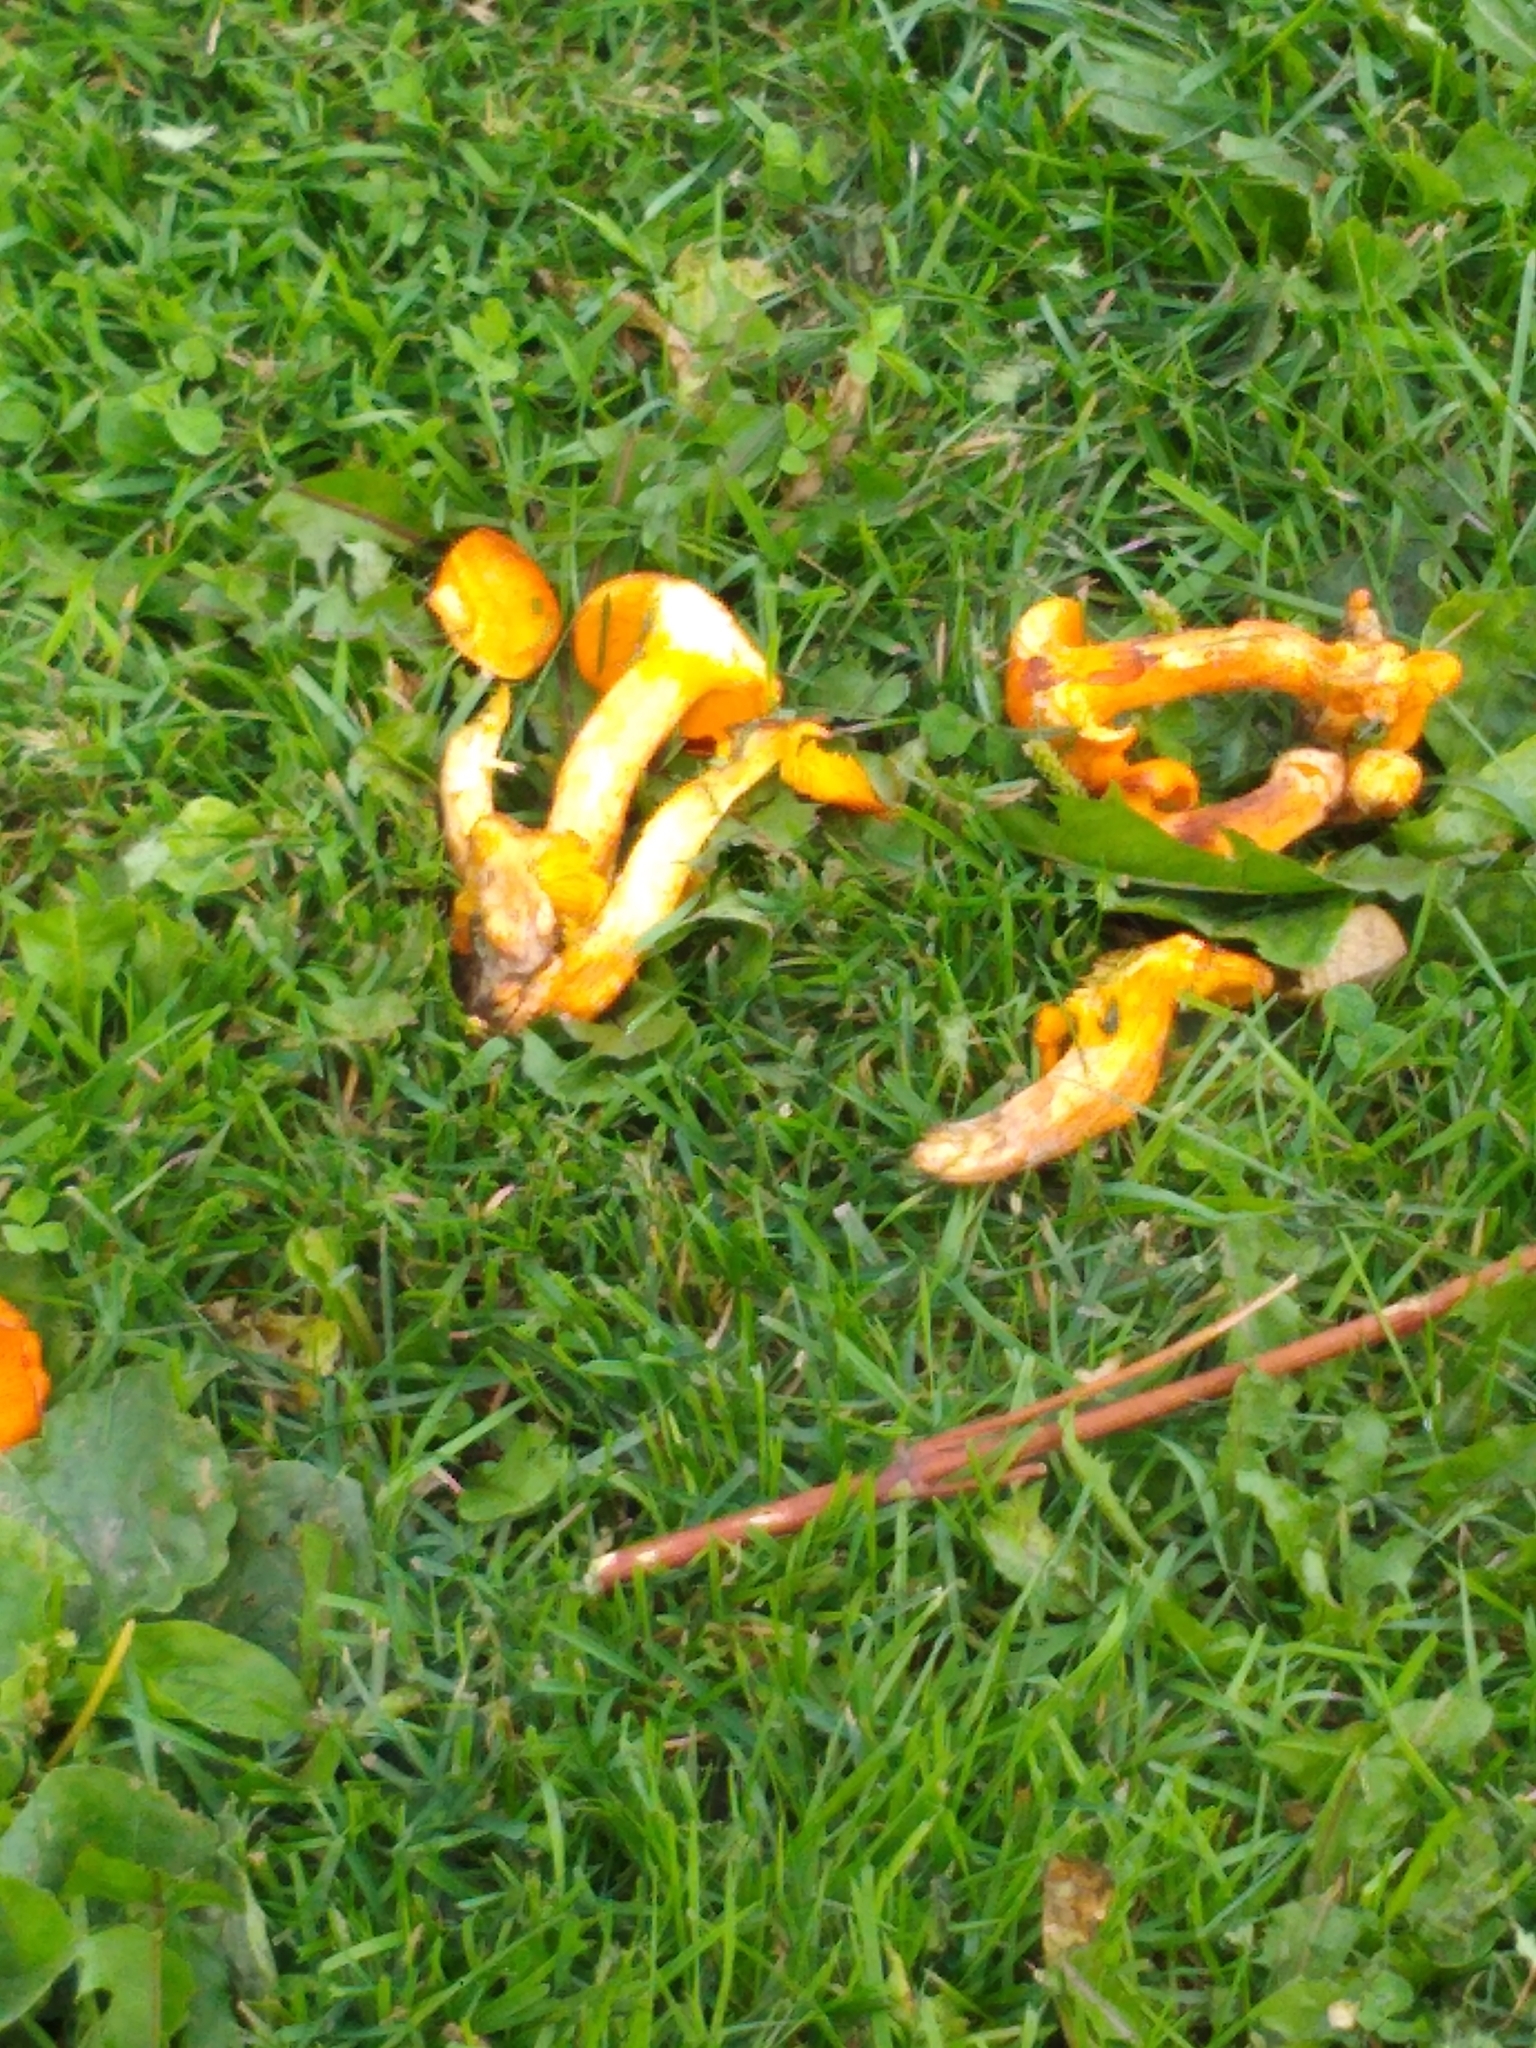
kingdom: Fungi
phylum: Basidiomycota
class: Agaricomycetes
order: Agaricales
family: Omphalotaceae
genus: Omphalotus
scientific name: Omphalotus illudens
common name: Jack o lantern
